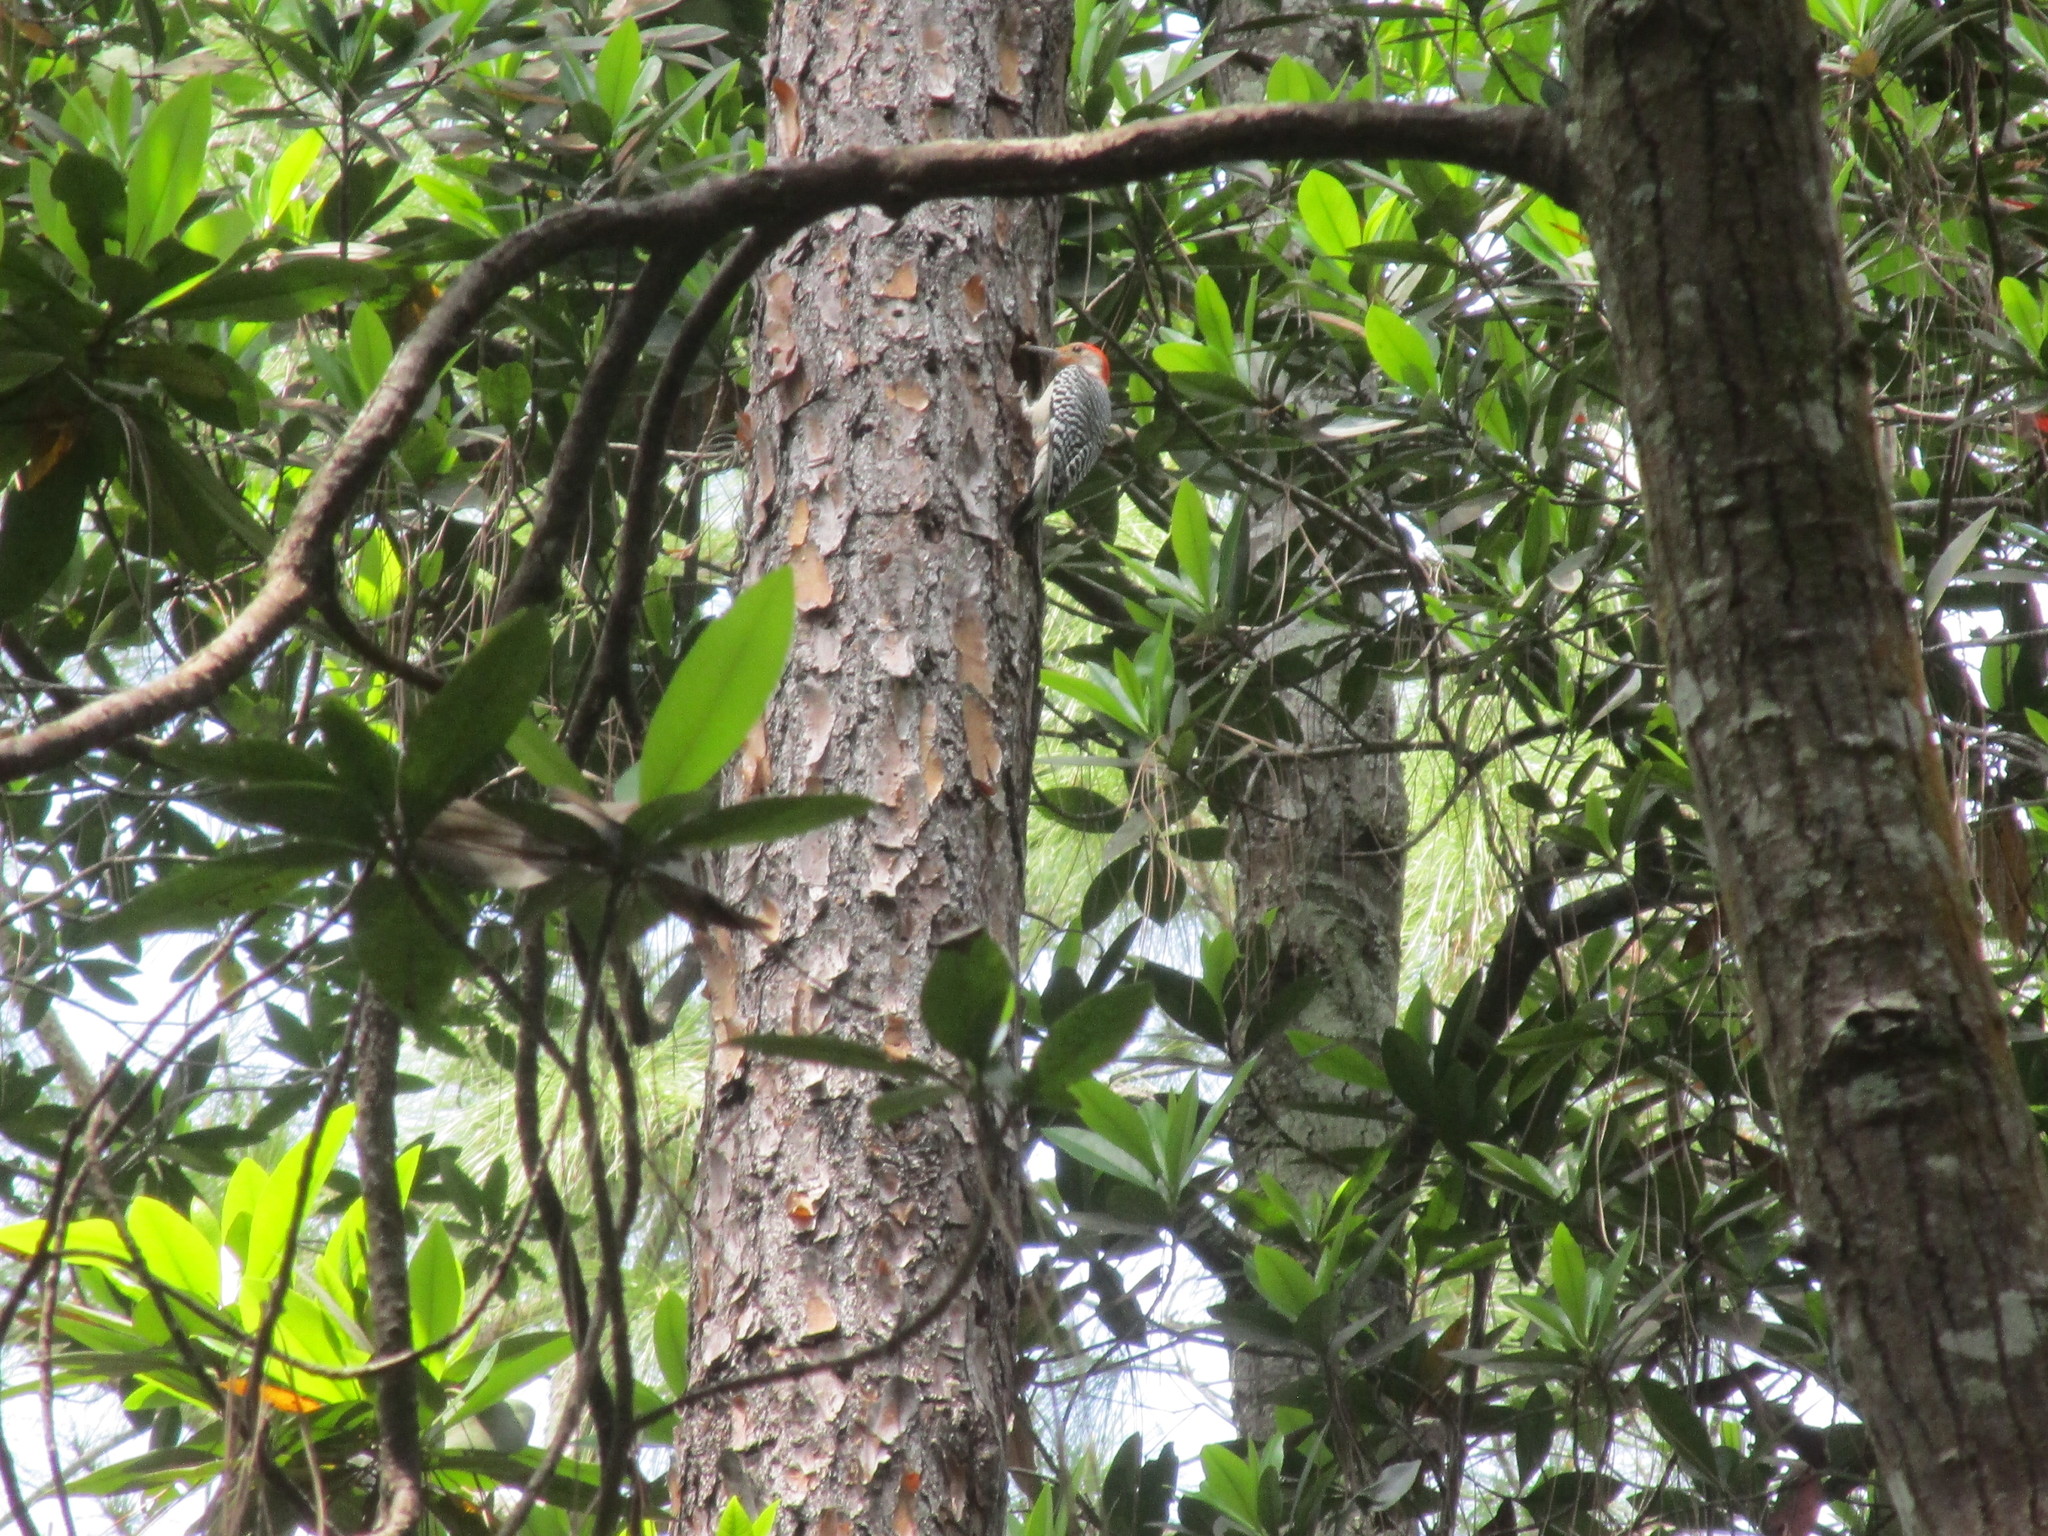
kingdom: Animalia
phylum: Chordata
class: Aves
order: Piciformes
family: Picidae
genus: Melanerpes
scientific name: Melanerpes carolinus
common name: Red-bellied woodpecker
